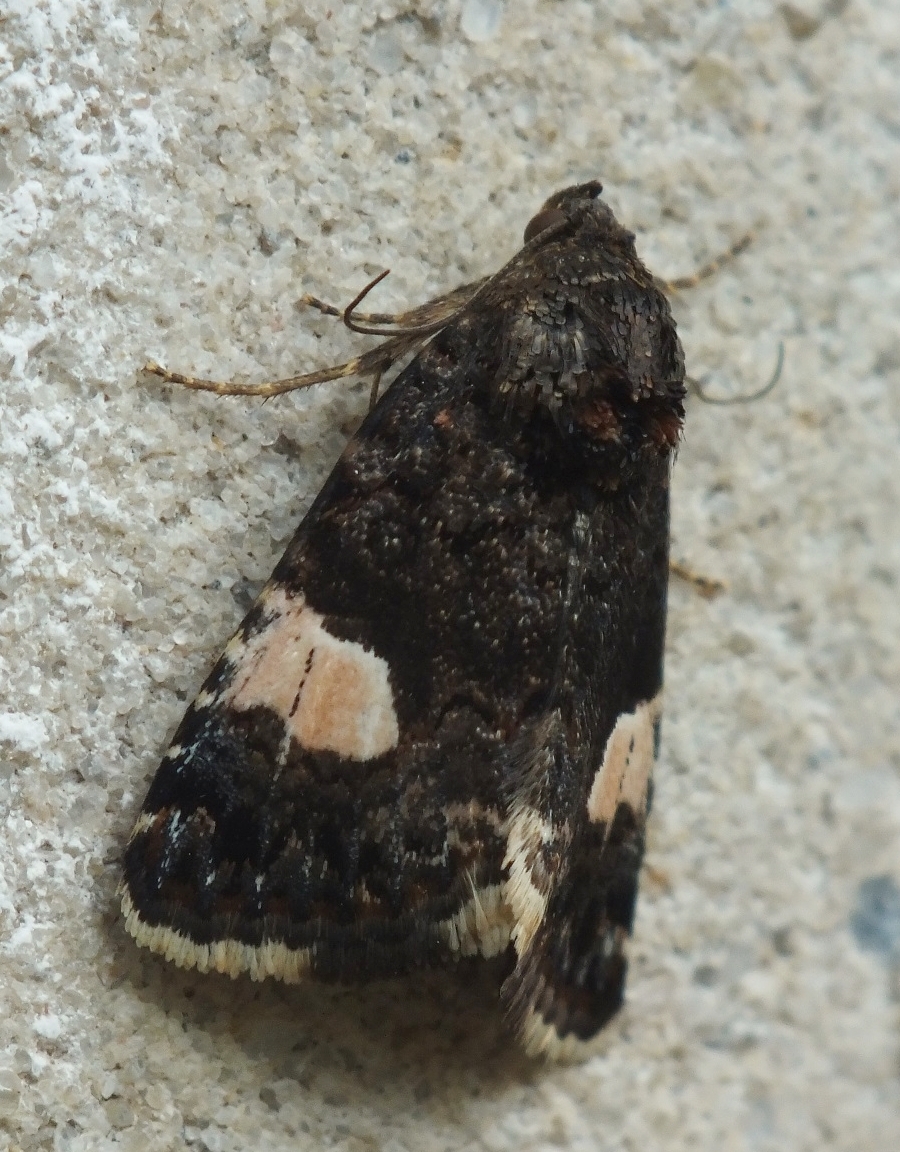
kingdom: Animalia
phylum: Arthropoda
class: Insecta
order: Lepidoptera
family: Erebidae
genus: Tyta
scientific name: Tyta luctuosa
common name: Four-spotted
